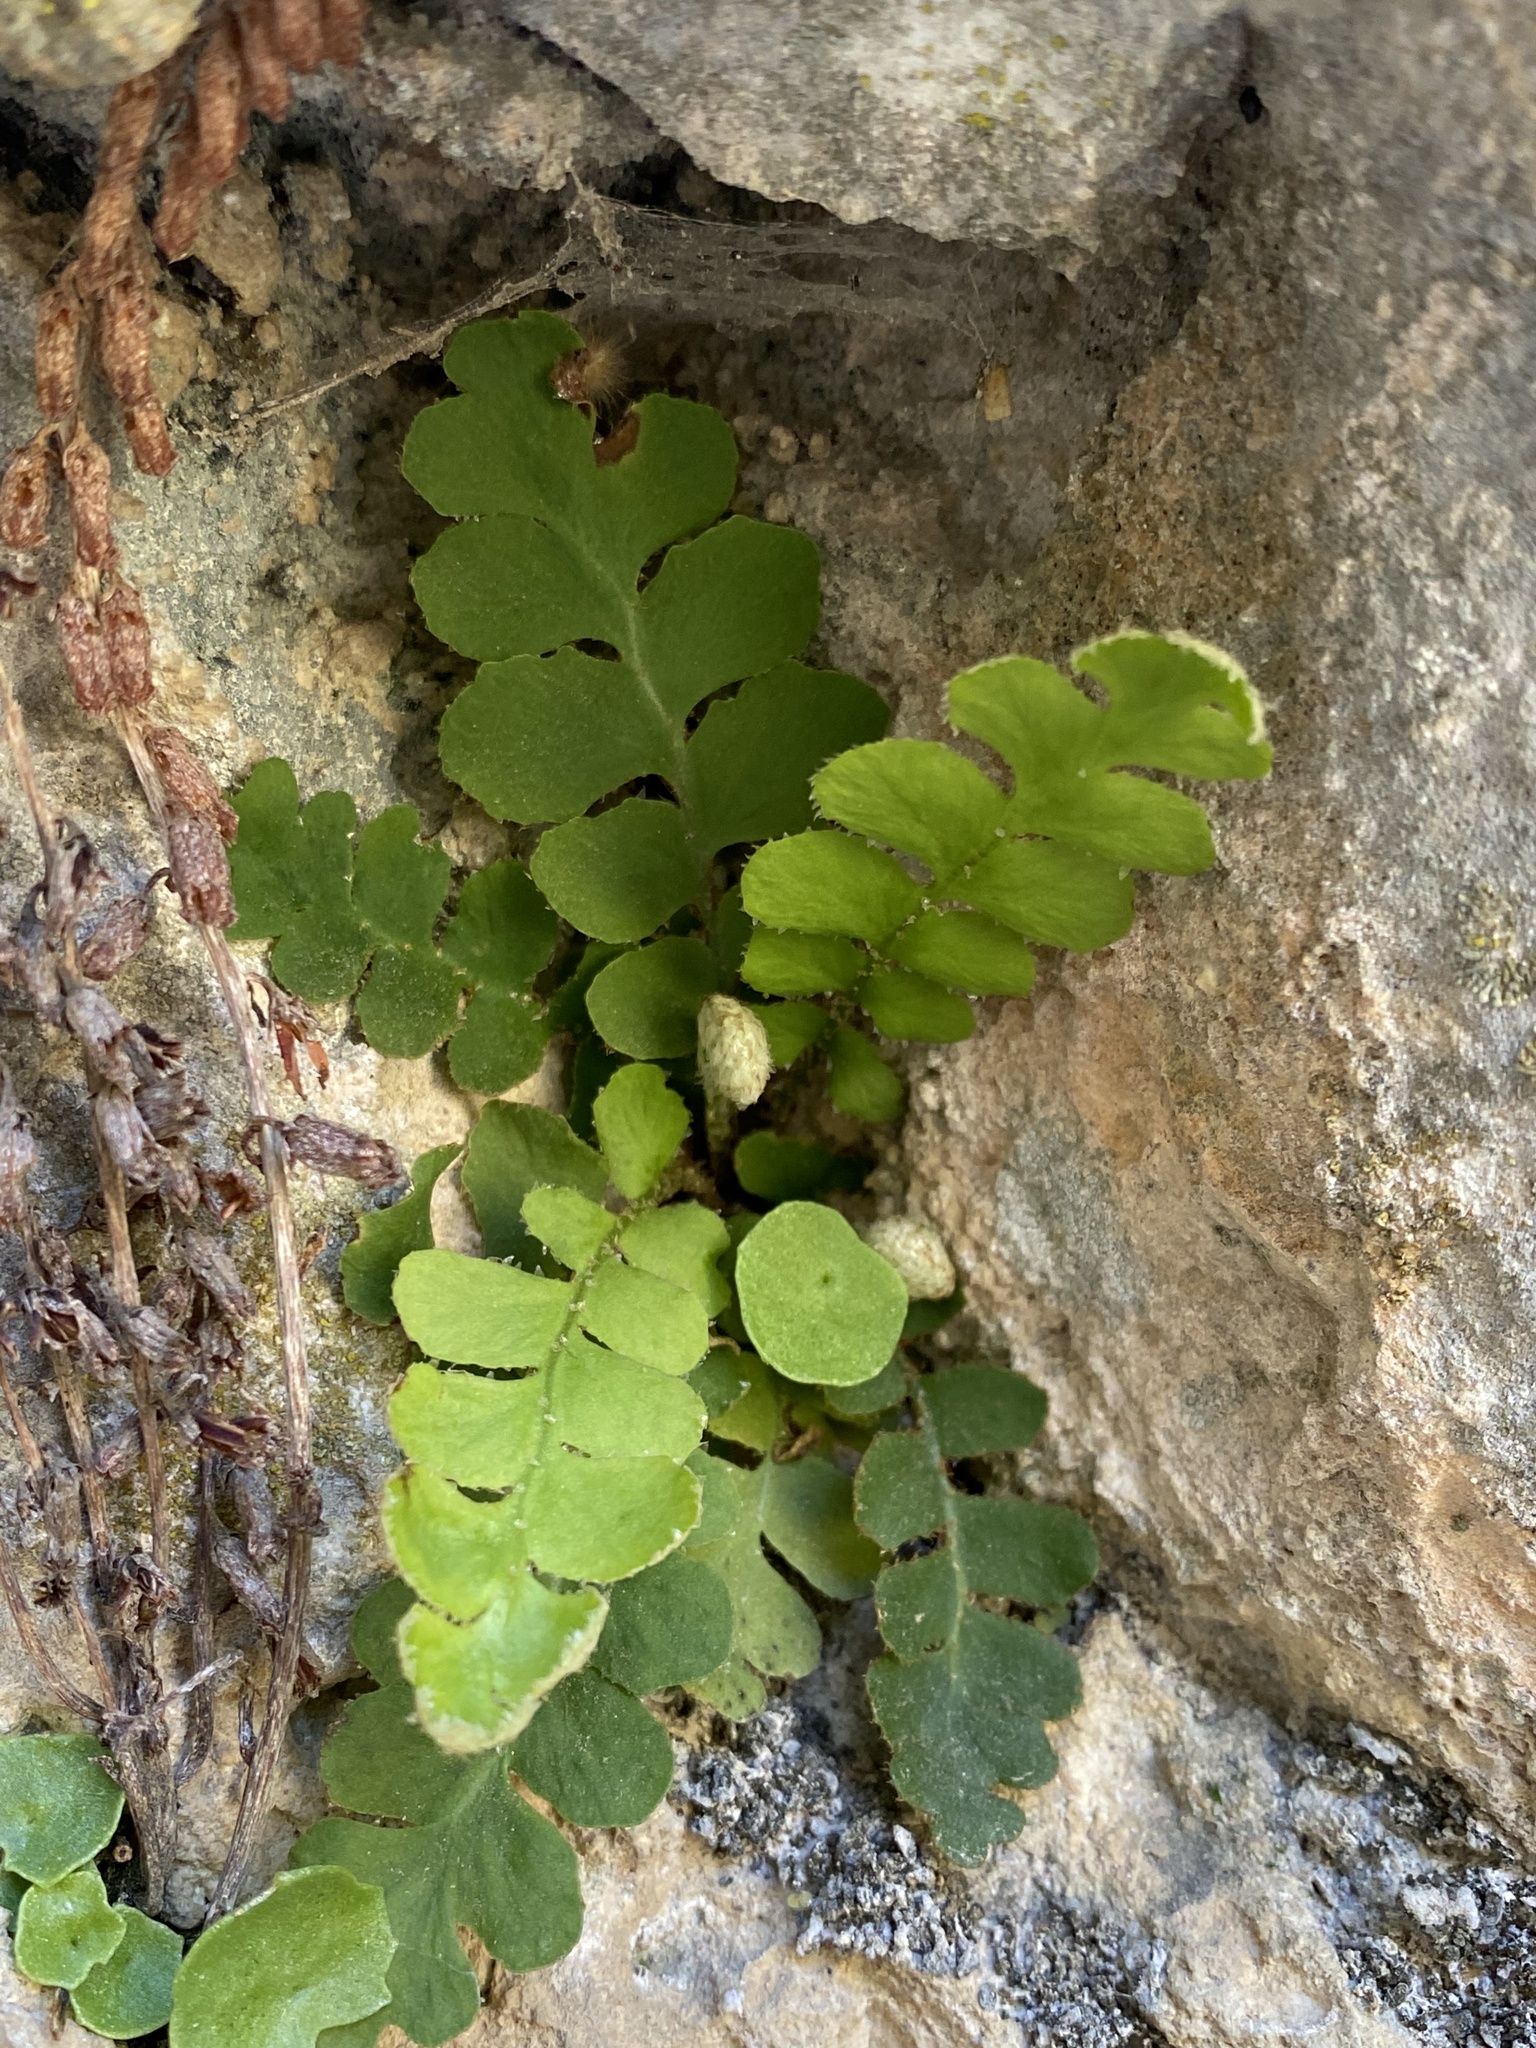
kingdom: Plantae
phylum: Tracheophyta
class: Polypodiopsida
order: Polypodiales
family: Aspleniaceae
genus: Asplenium
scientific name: Asplenium ceterach
